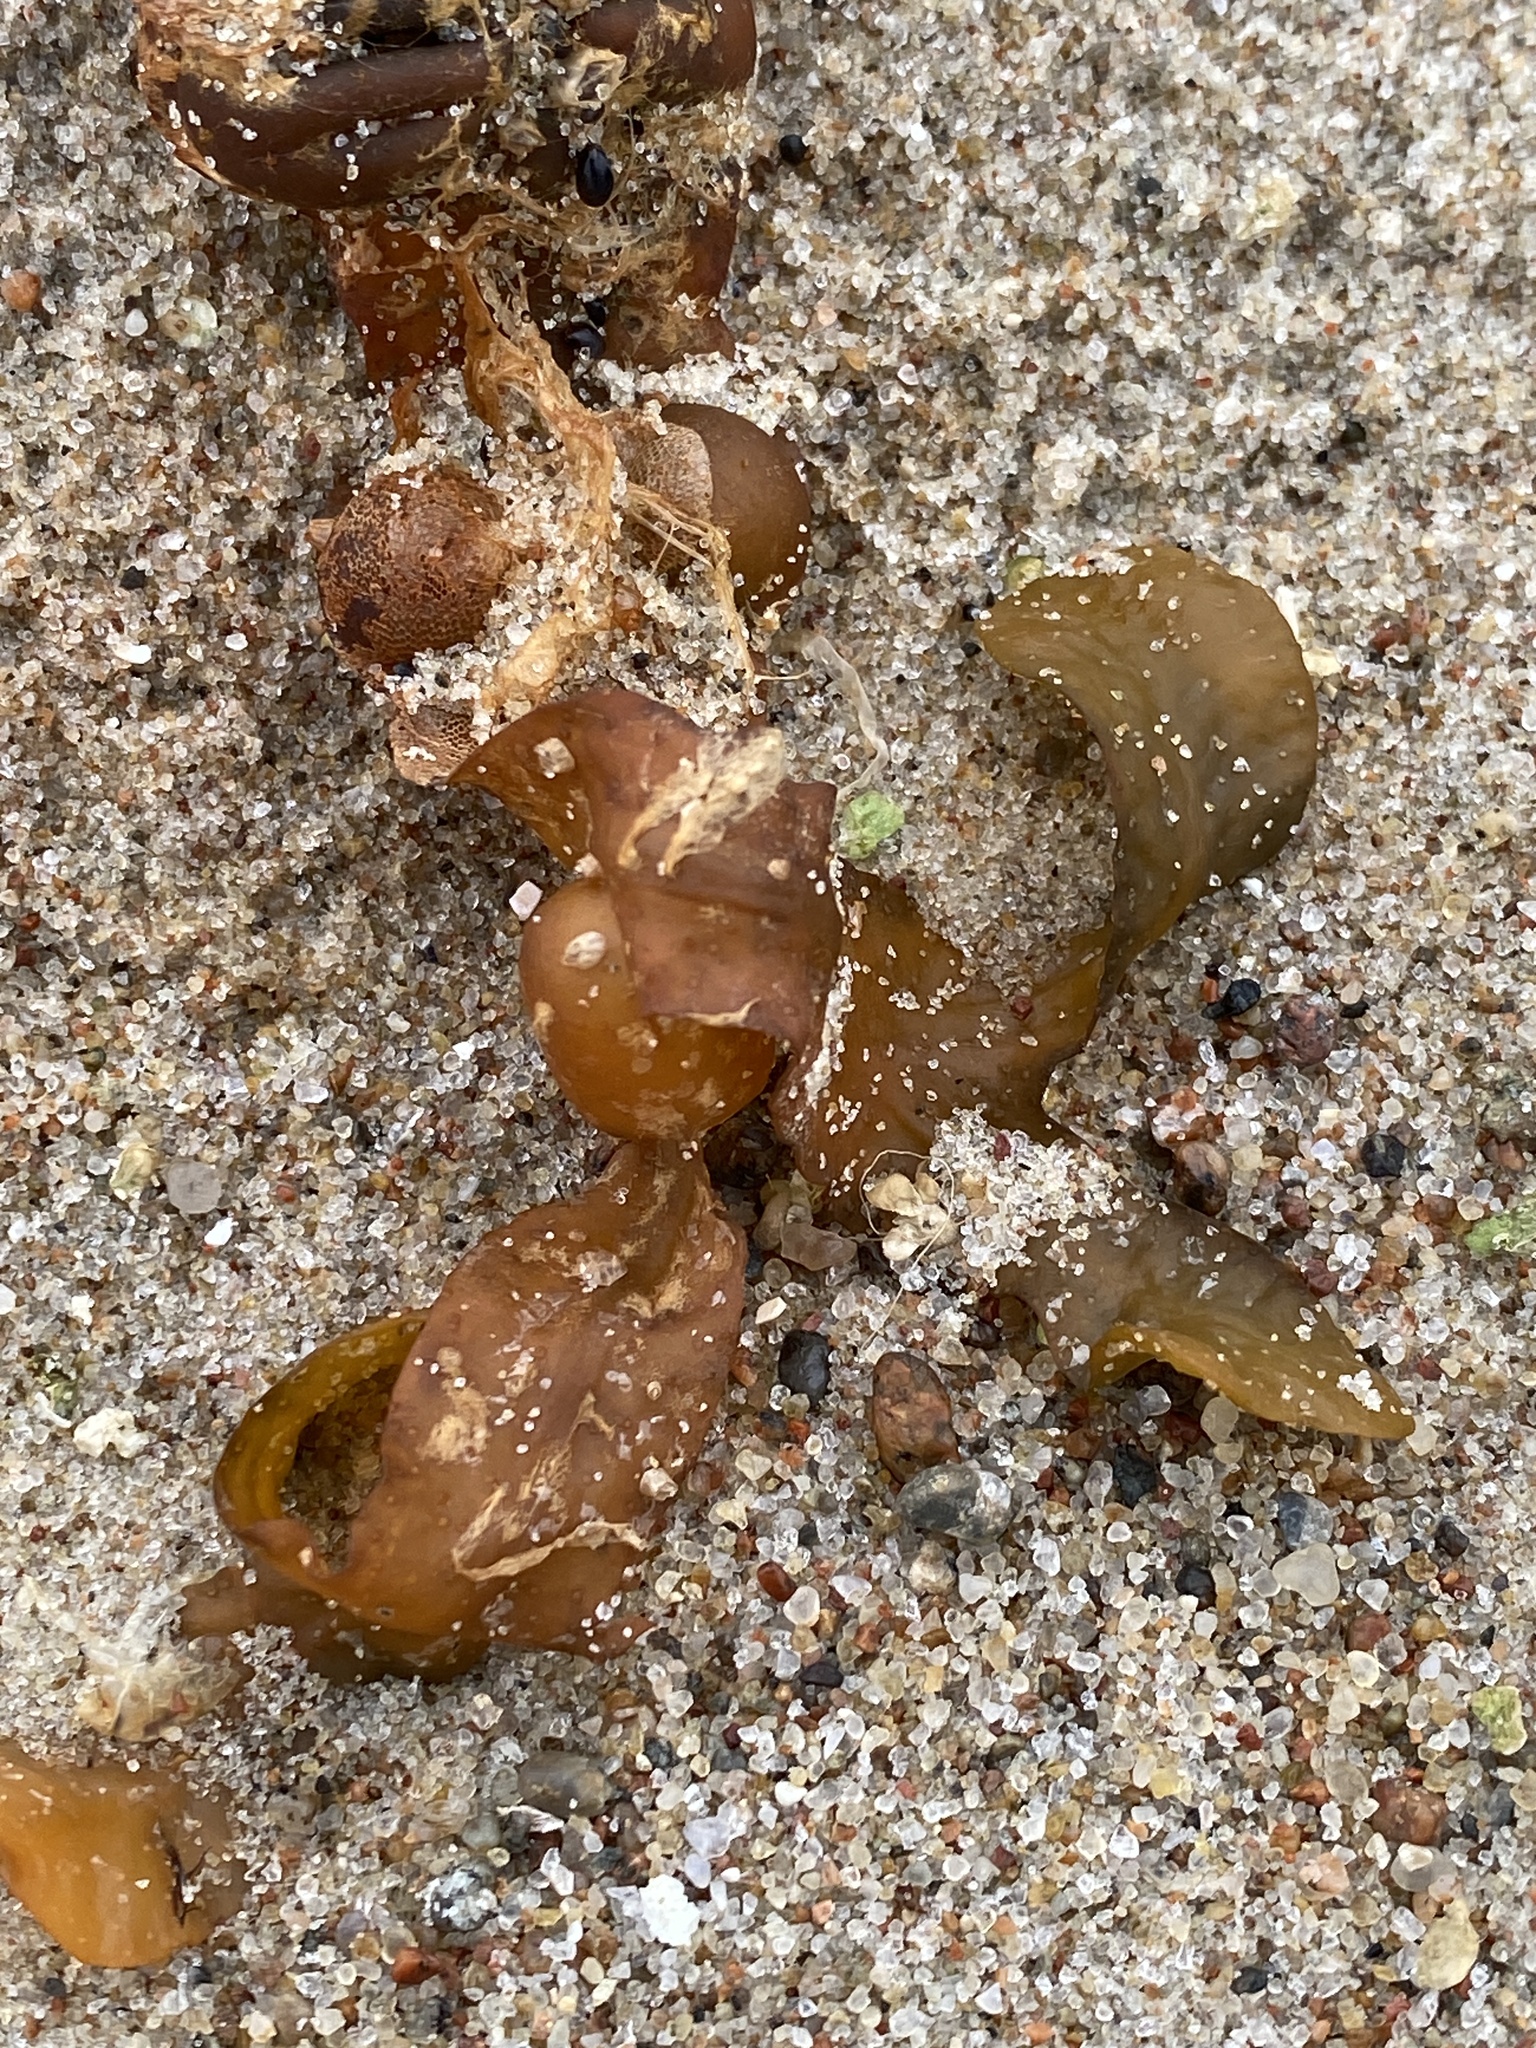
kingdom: Chromista
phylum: Ochrophyta
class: Phaeophyceae
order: Fucales
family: Fucaceae
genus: Fucus
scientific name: Fucus vesiculosus
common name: Bladder wrack
